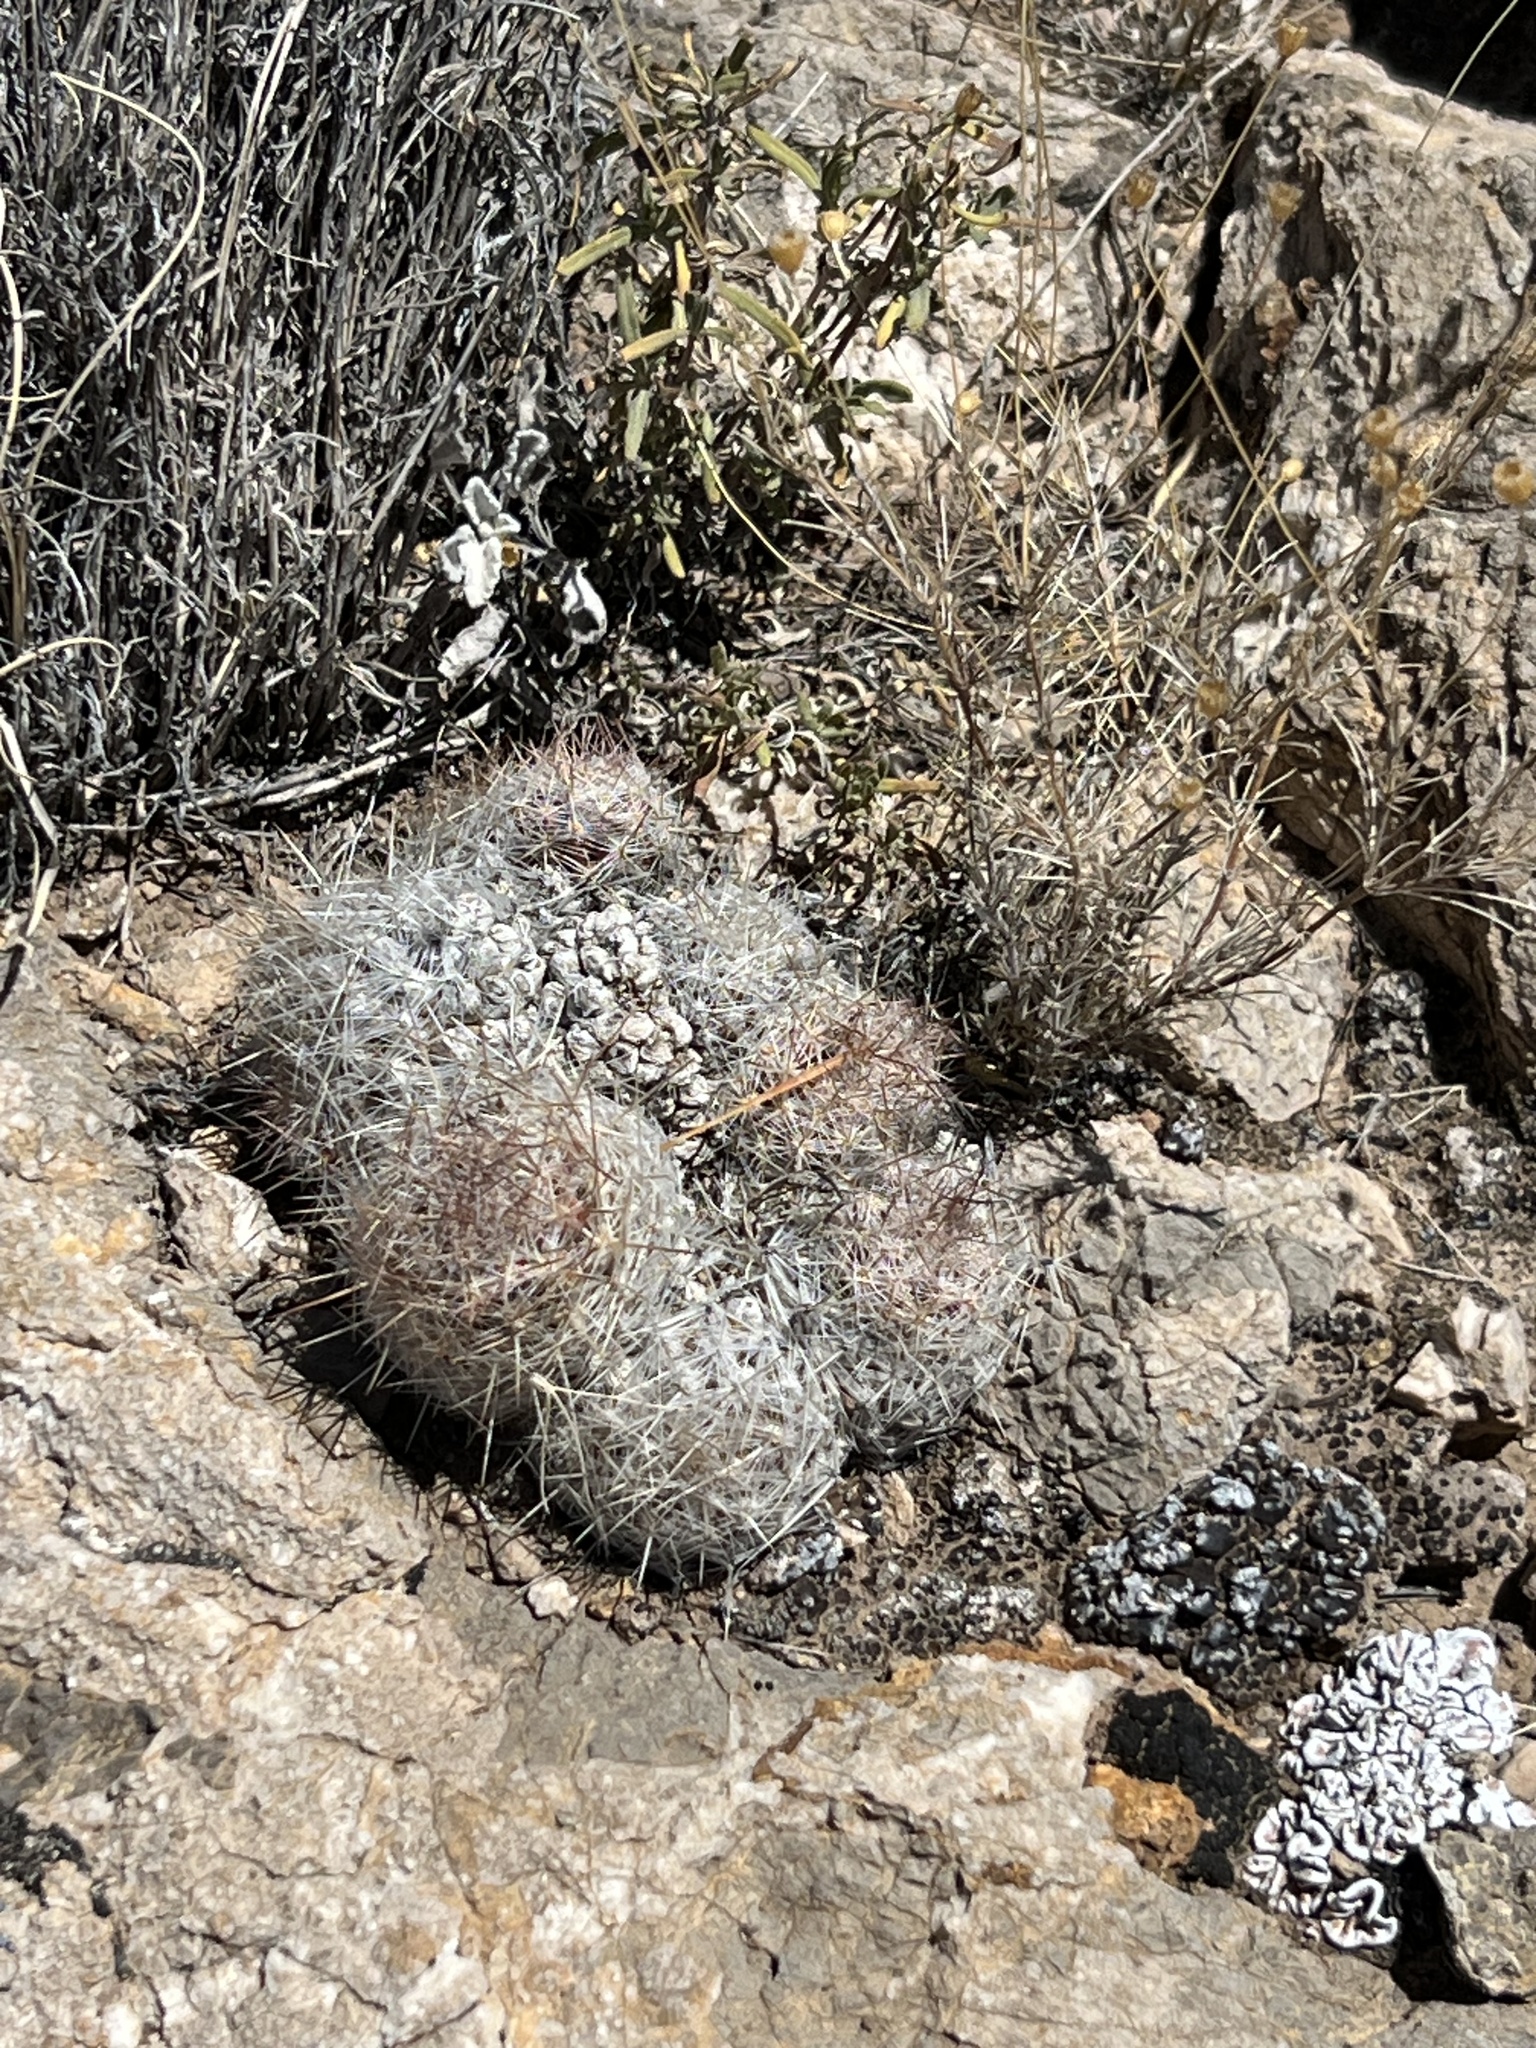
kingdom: Plantae
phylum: Tracheophyta
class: Magnoliopsida
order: Caryophyllales
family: Cactaceae
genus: Pelecyphora
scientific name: Pelecyphora tuberculosa
